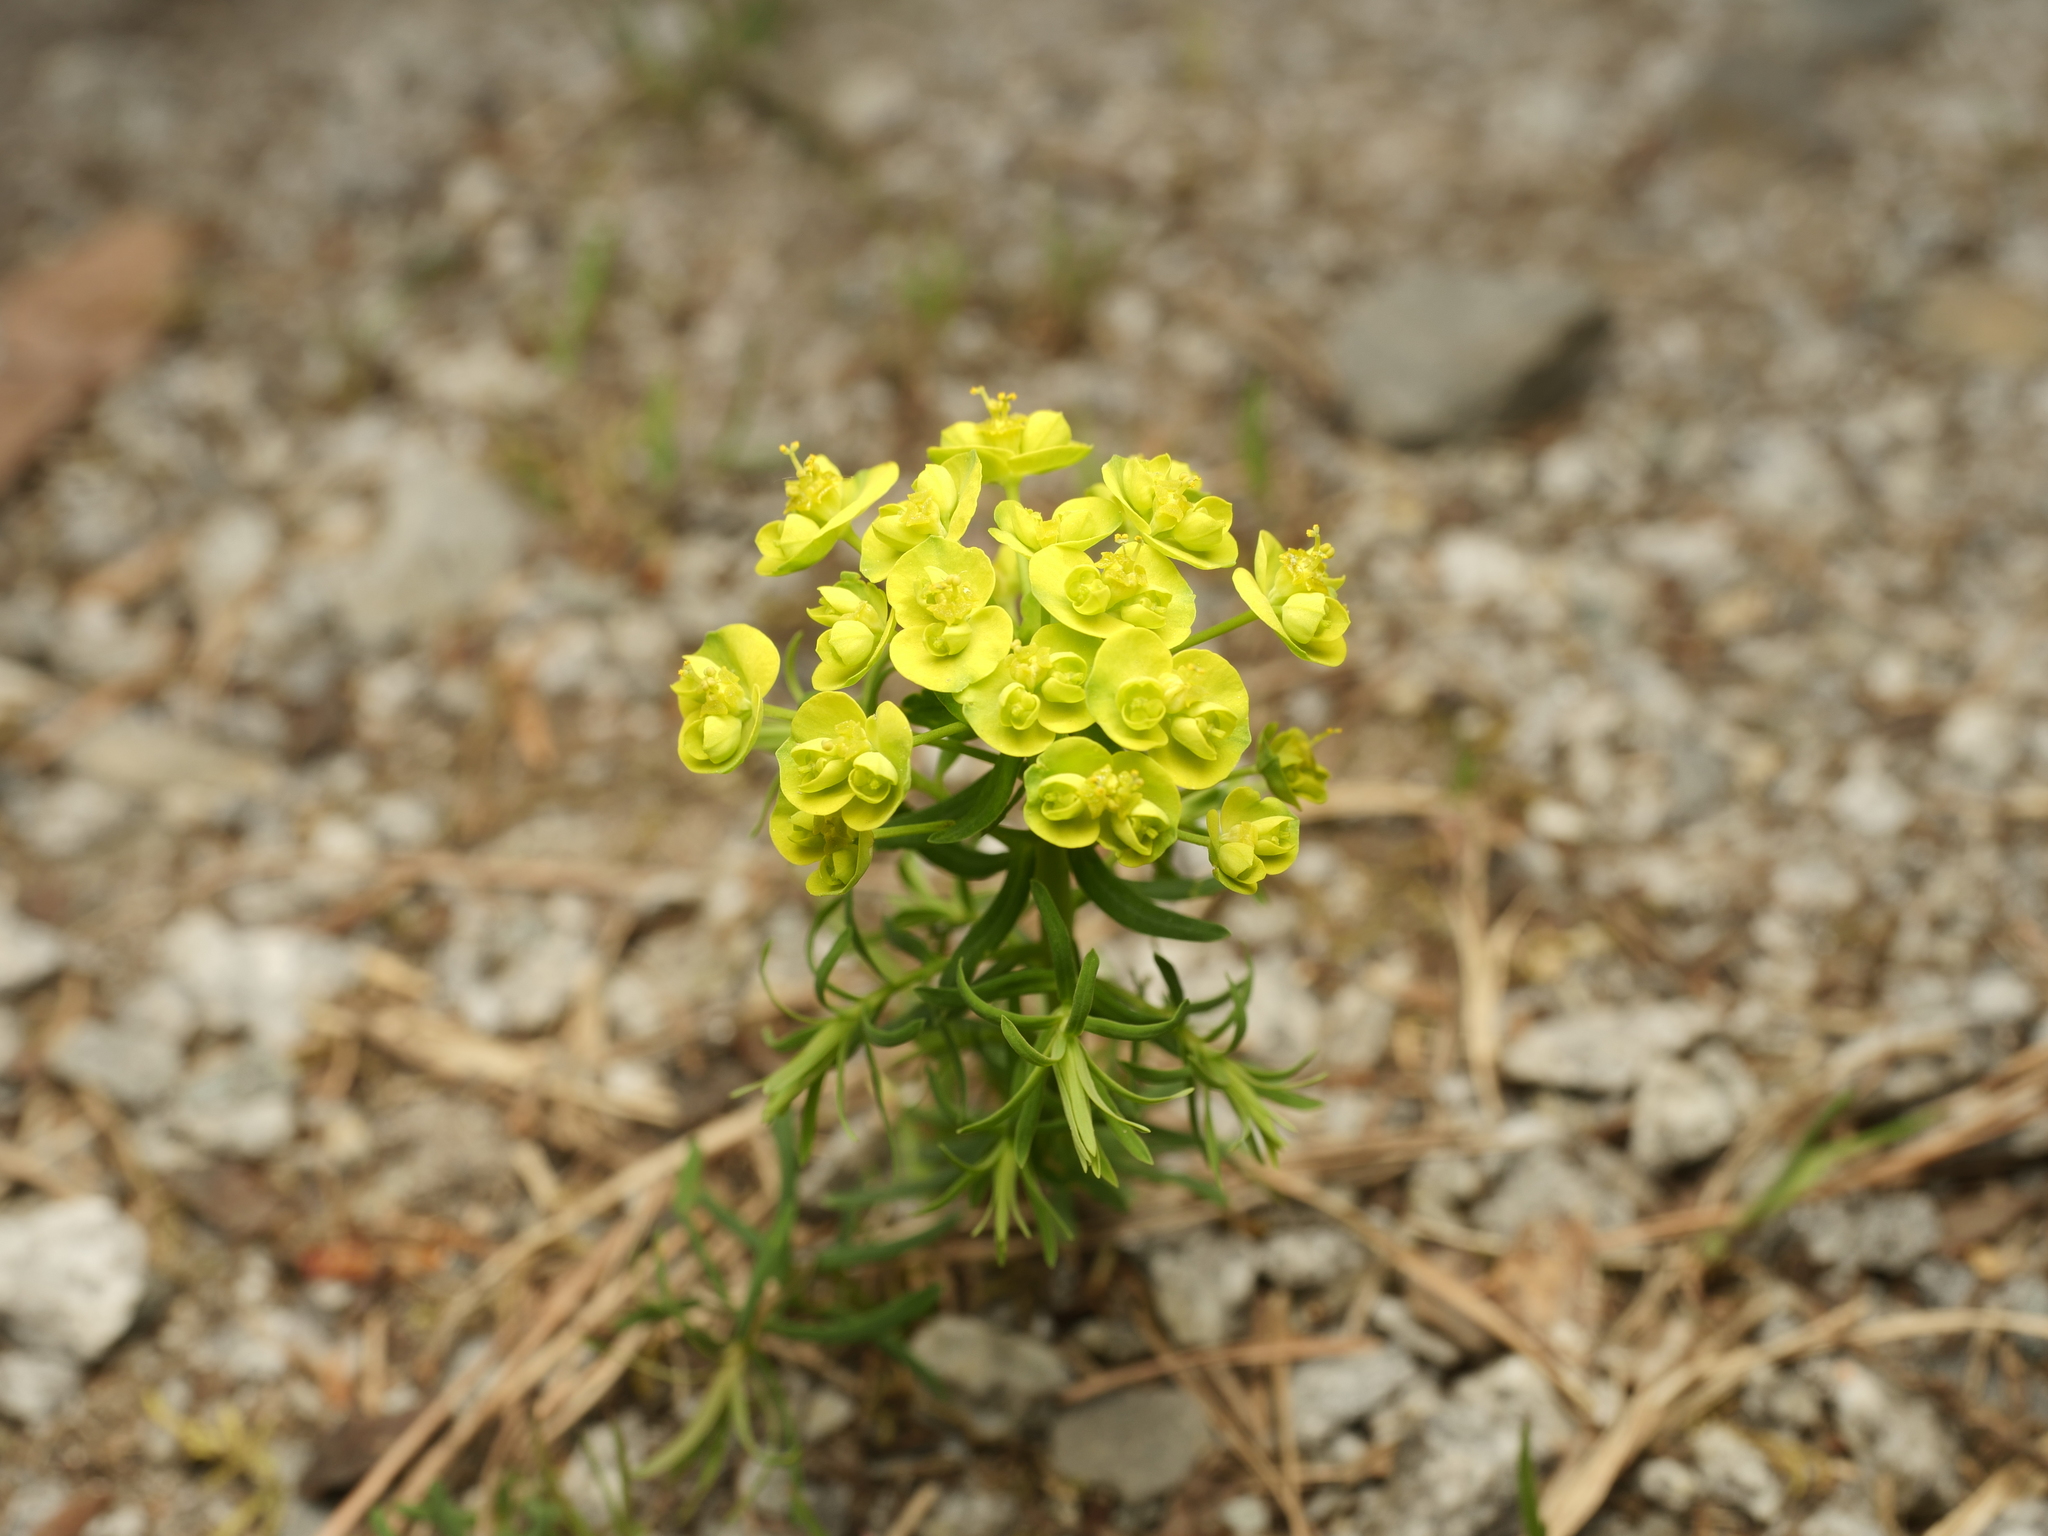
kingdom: Plantae
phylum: Tracheophyta
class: Magnoliopsida
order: Malpighiales
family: Euphorbiaceae
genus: Euphorbia
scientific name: Euphorbia cyparissias
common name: Cypress spurge
